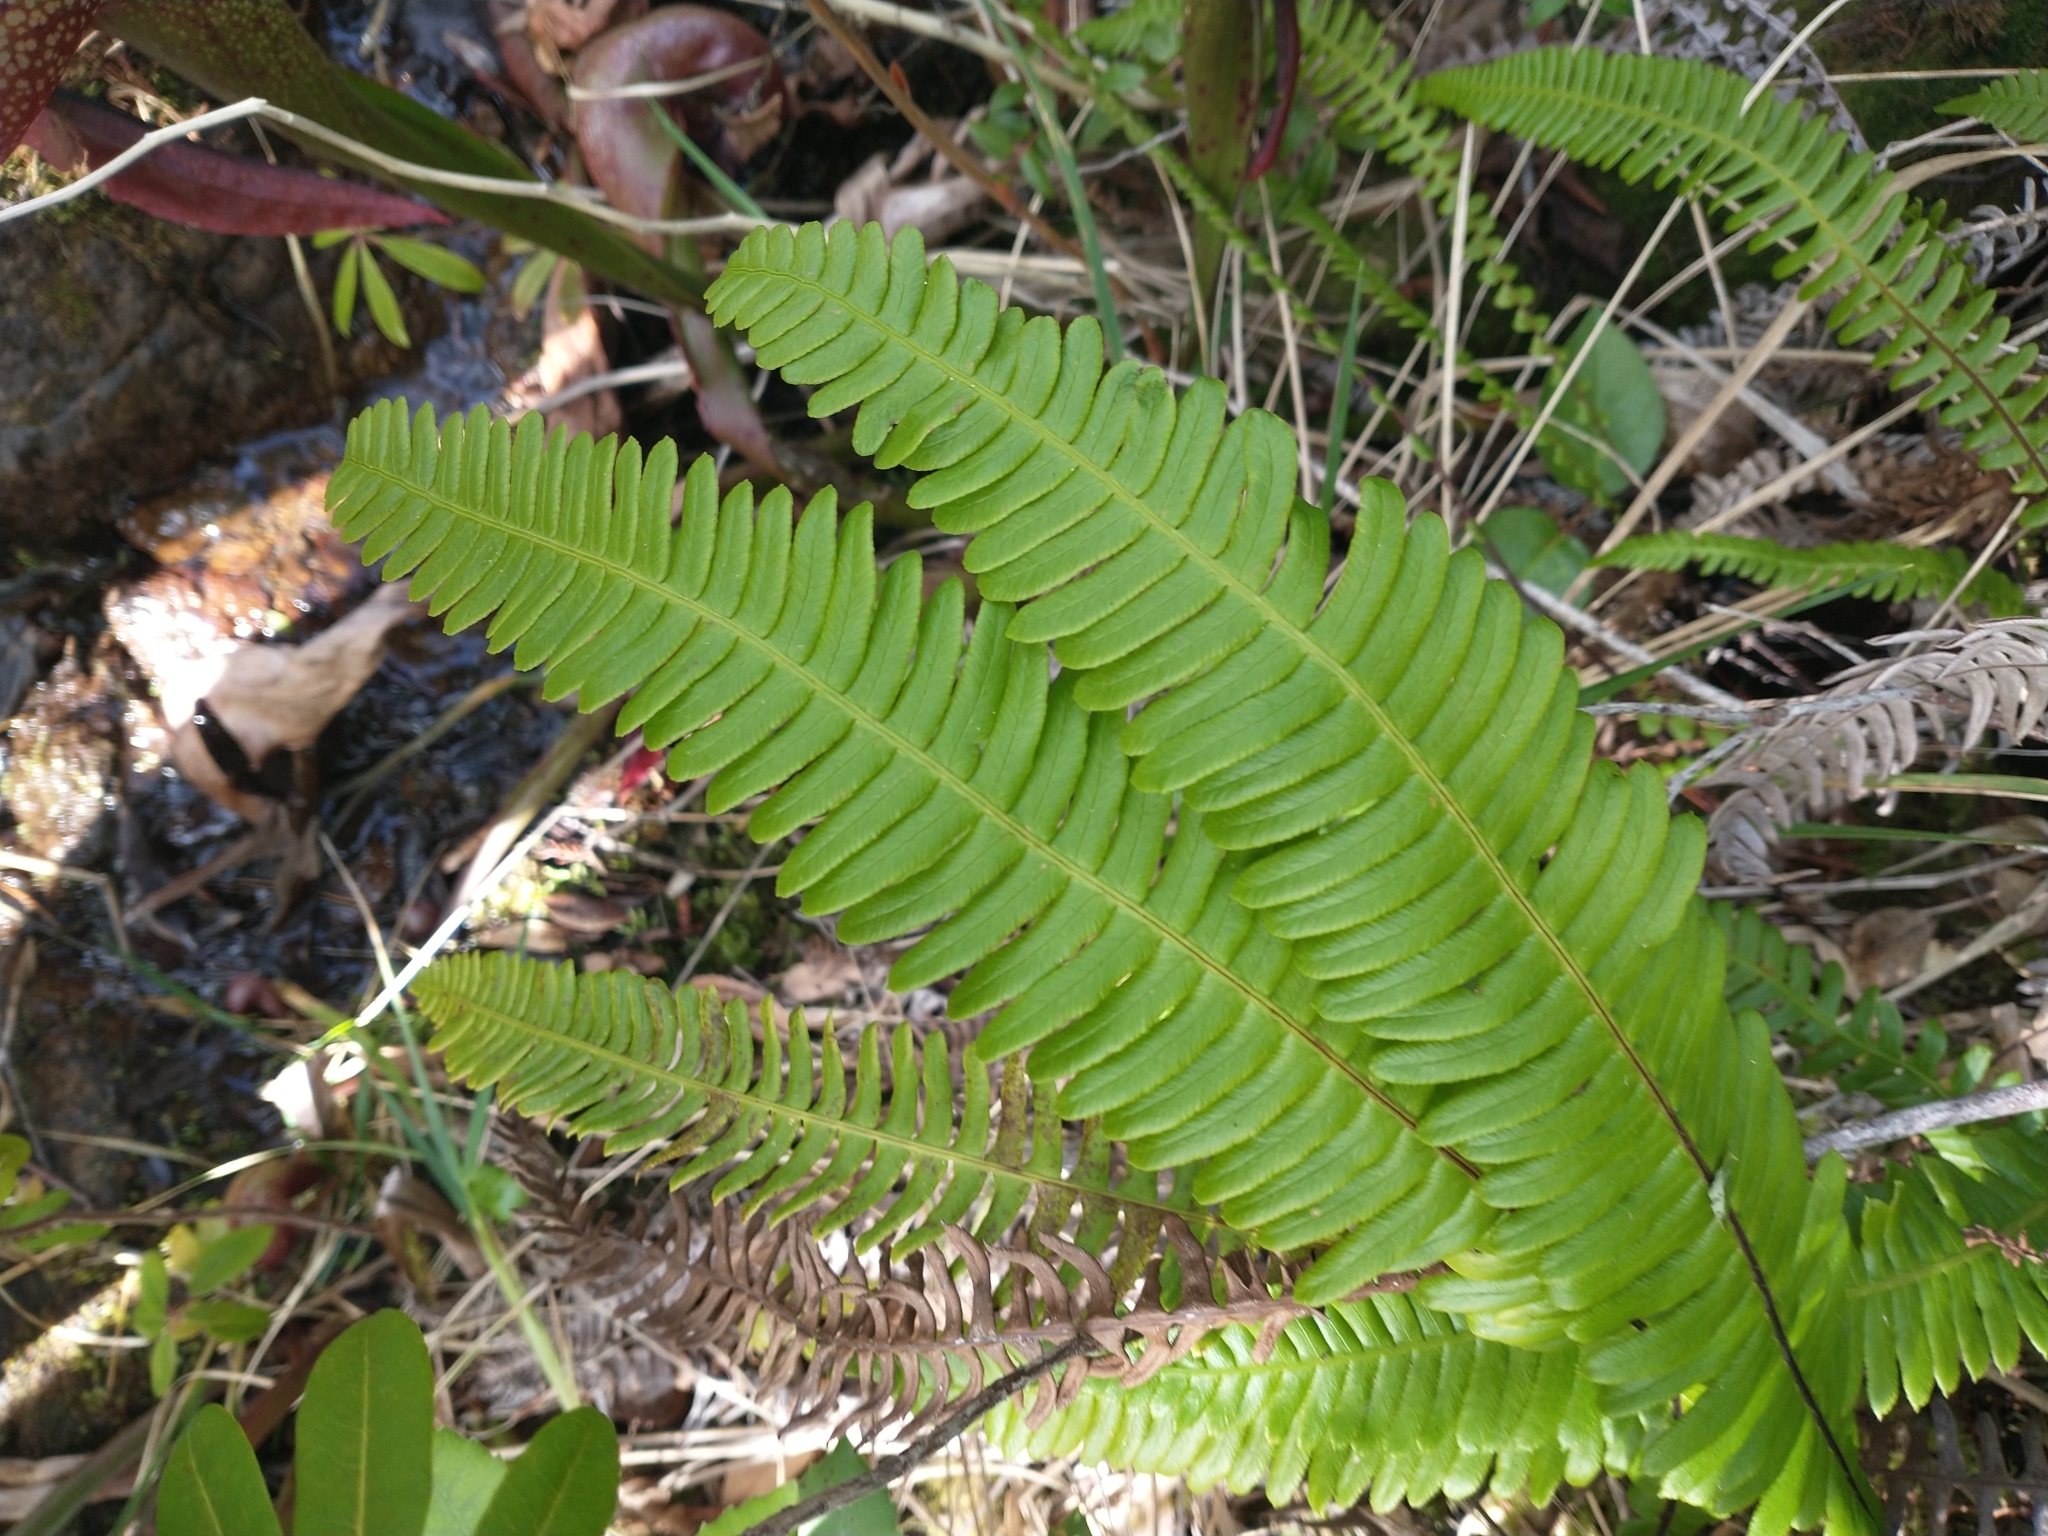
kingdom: Plantae
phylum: Tracheophyta
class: Polypodiopsida
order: Polypodiales
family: Blechnaceae
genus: Struthiopteris
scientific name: Struthiopteris spicant
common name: Deer fern
